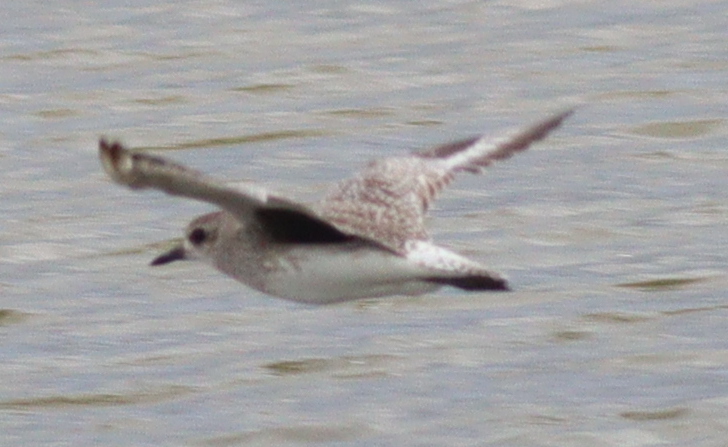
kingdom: Animalia
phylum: Chordata
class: Aves
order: Charadriiformes
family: Charadriidae
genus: Pluvialis
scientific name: Pluvialis squatarola
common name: Grey plover
